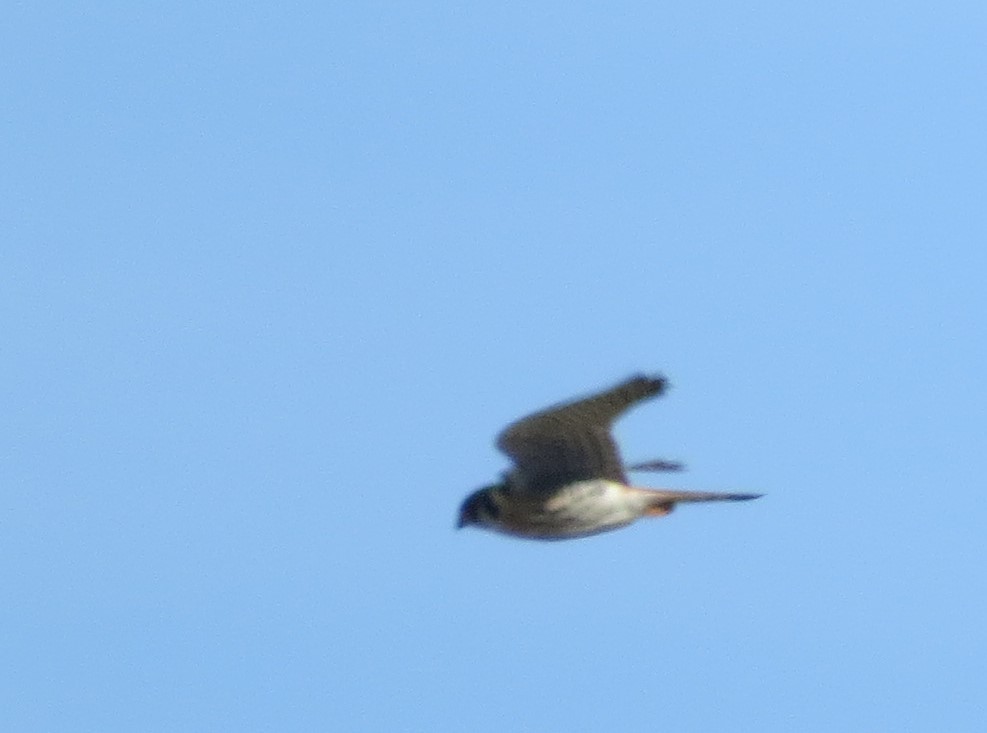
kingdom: Animalia
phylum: Chordata
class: Aves
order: Falconiformes
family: Falconidae
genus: Falco
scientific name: Falco sparverius
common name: American kestrel
